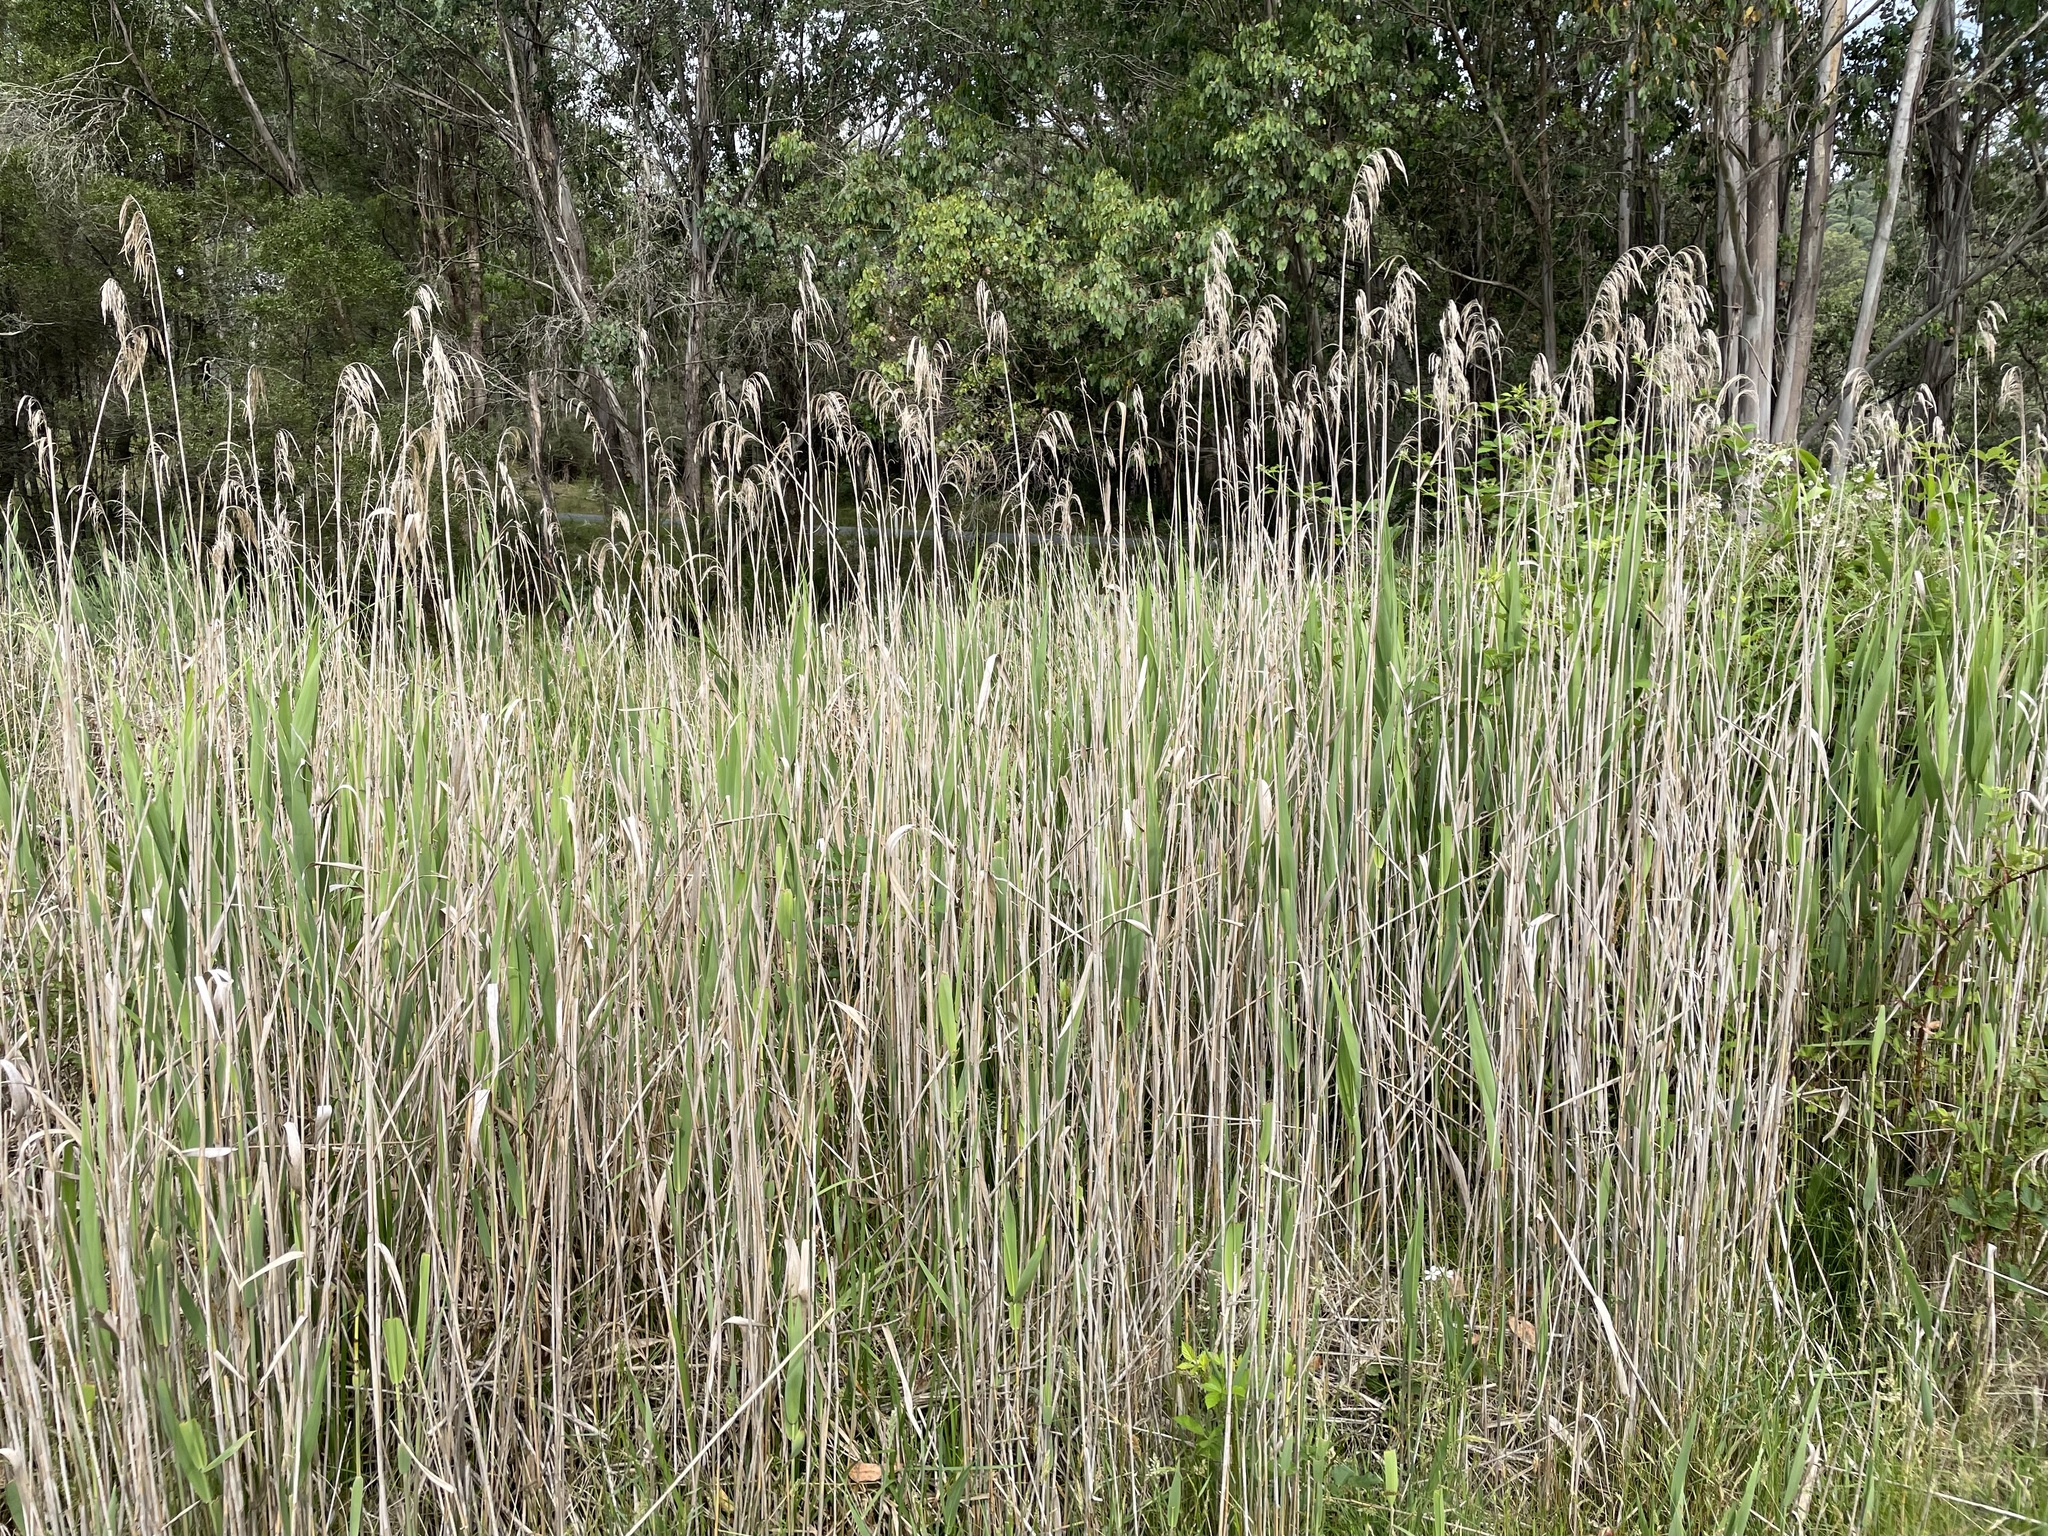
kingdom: Plantae
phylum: Tracheophyta
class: Liliopsida
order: Poales
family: Poaceae
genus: Phragmites
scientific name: Phragmites australis
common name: Common reed
